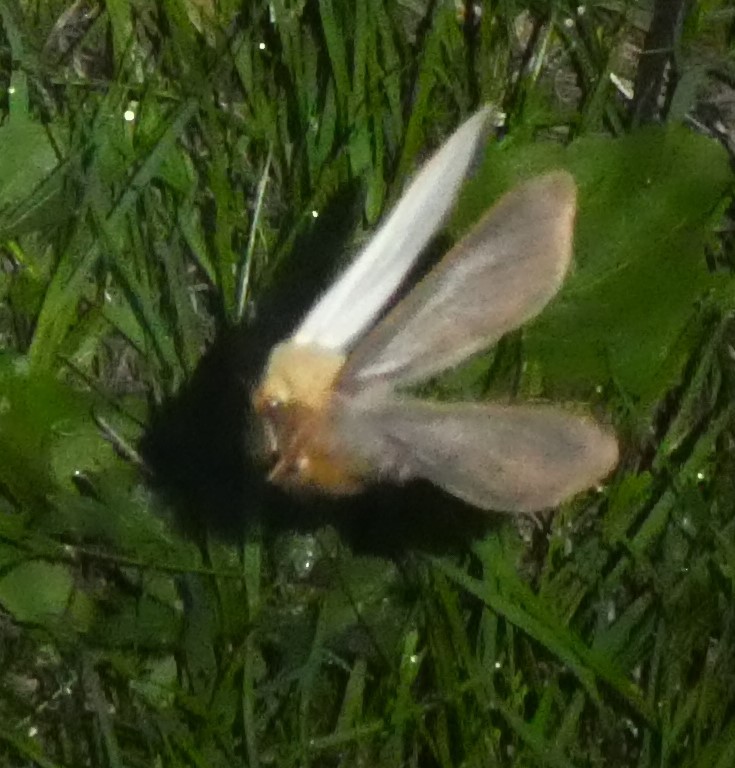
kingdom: Animalia
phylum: Arthropoda
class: Insecta
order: Lepidoptera
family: Hepialidae
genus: Hepialus
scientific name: Hepialus humuli
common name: Ghost moth
